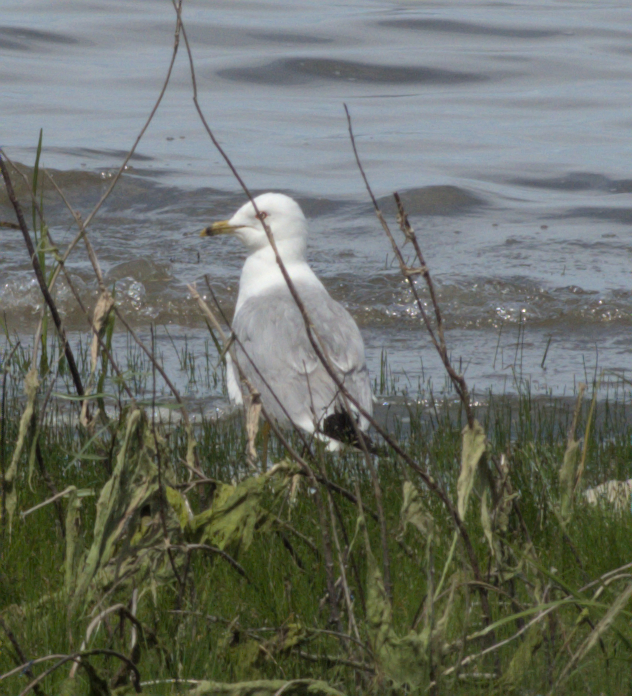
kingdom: Animalia
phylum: Chordata
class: Aves
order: Charadriiformes
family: Laridae
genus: Larus
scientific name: Larus delawarensis
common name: Ring-billed gull
